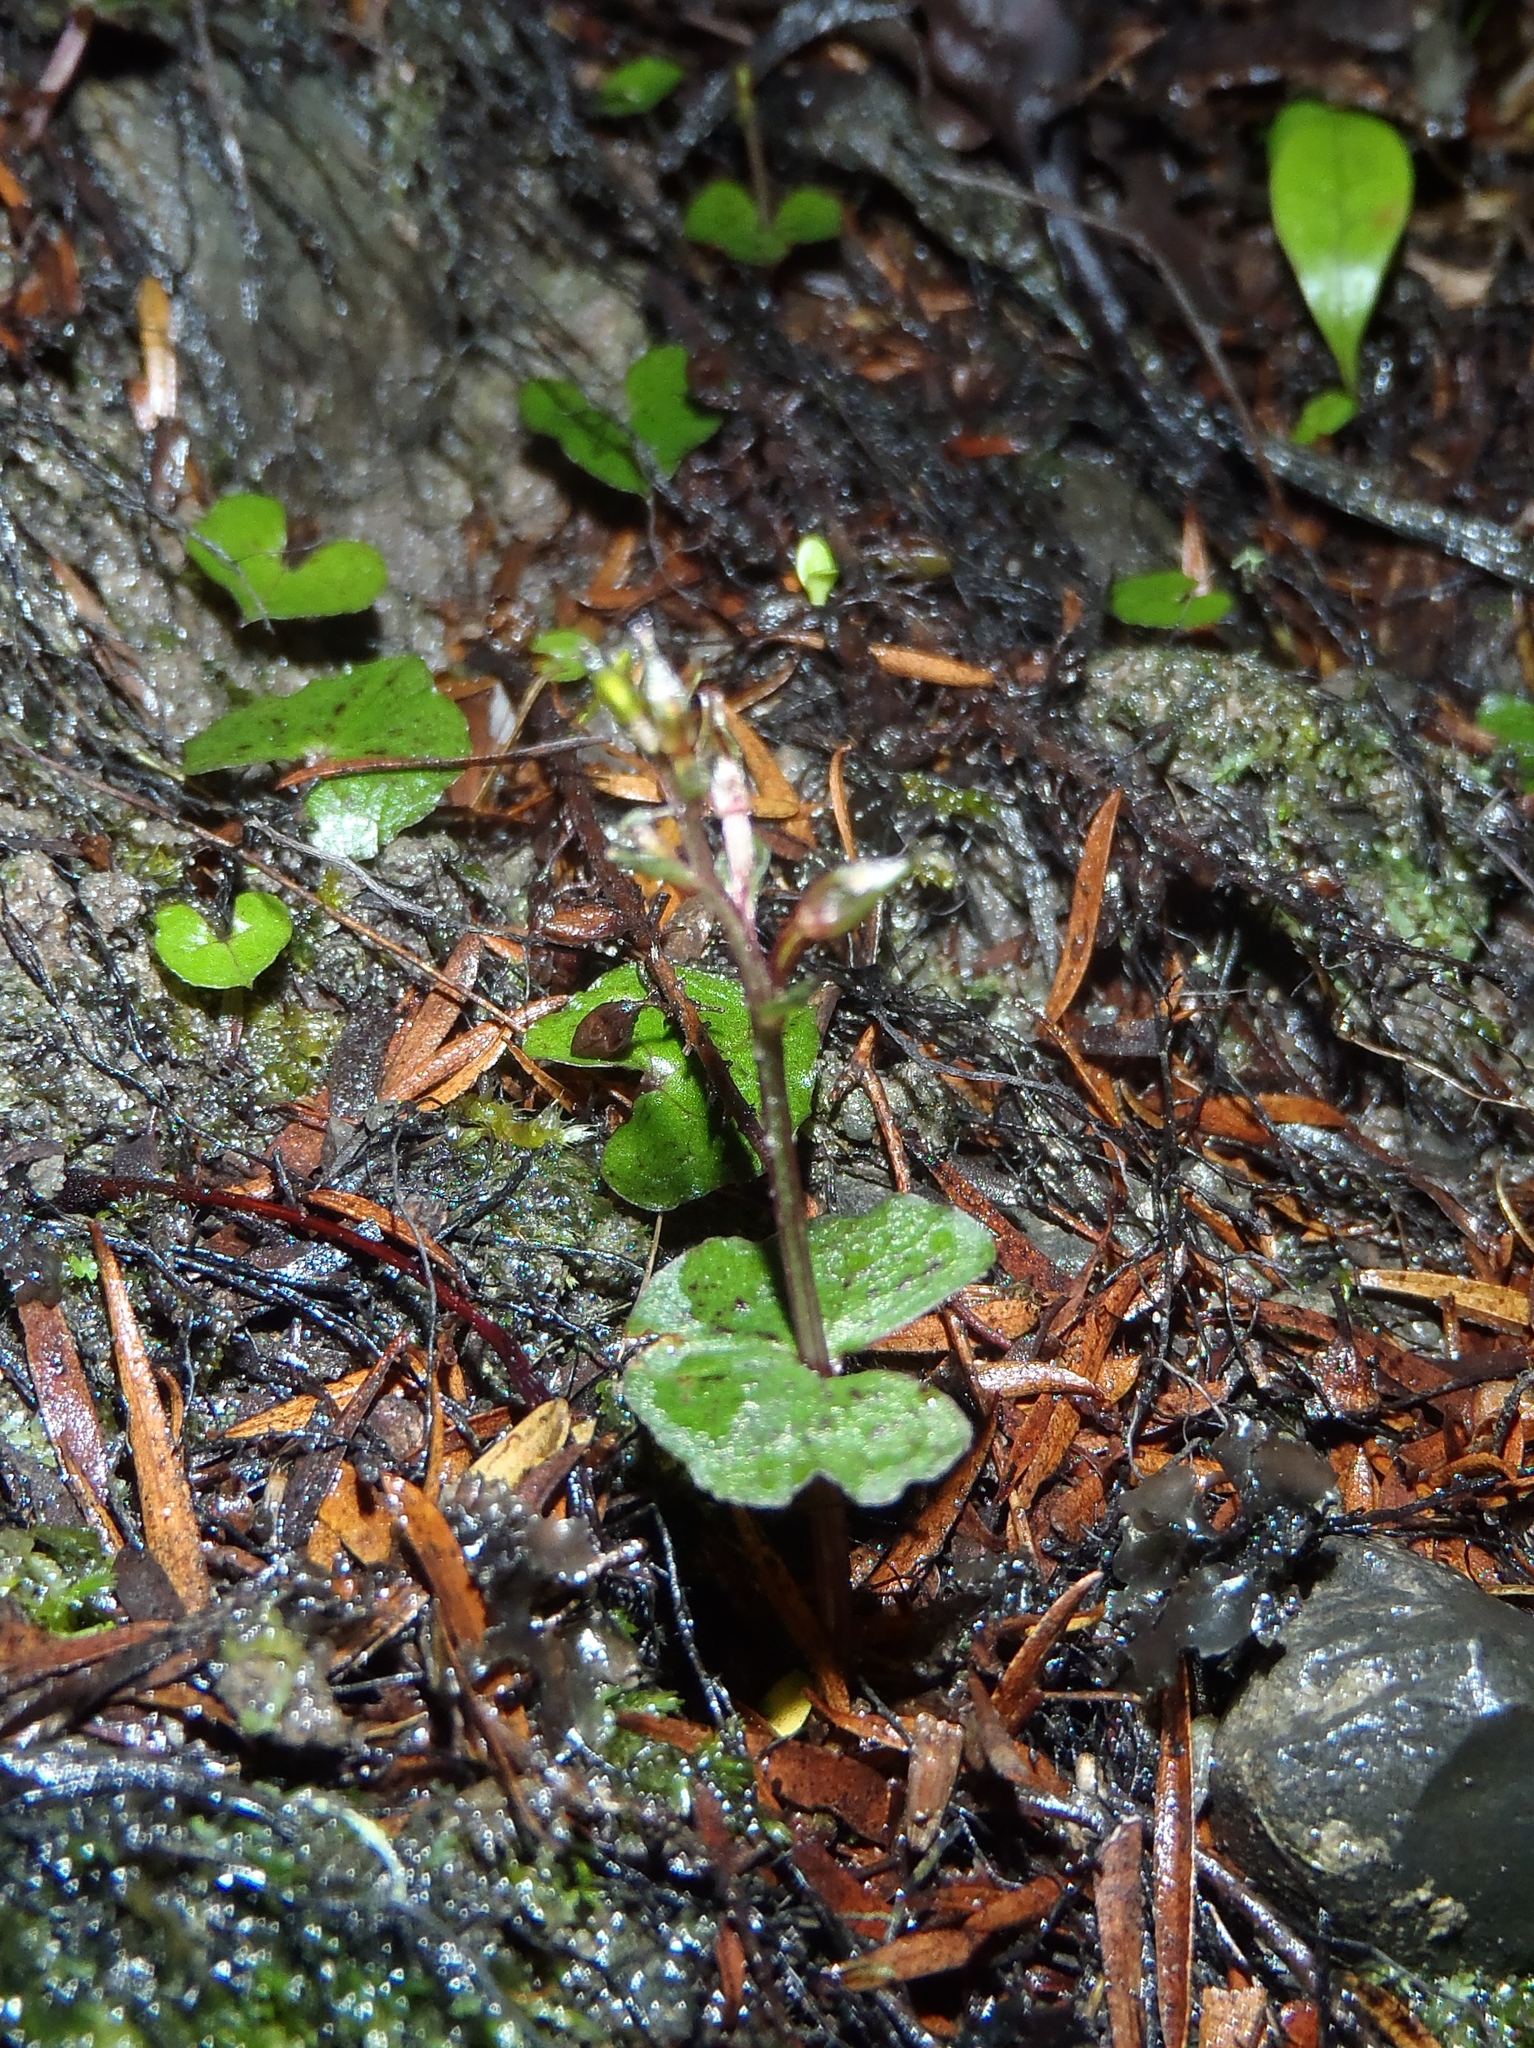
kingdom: Plantae
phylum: Tracheophyta
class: Liliopsida
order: Asparagales
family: Orchidaceae
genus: Acianthus
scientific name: Acianthus sinclairii
